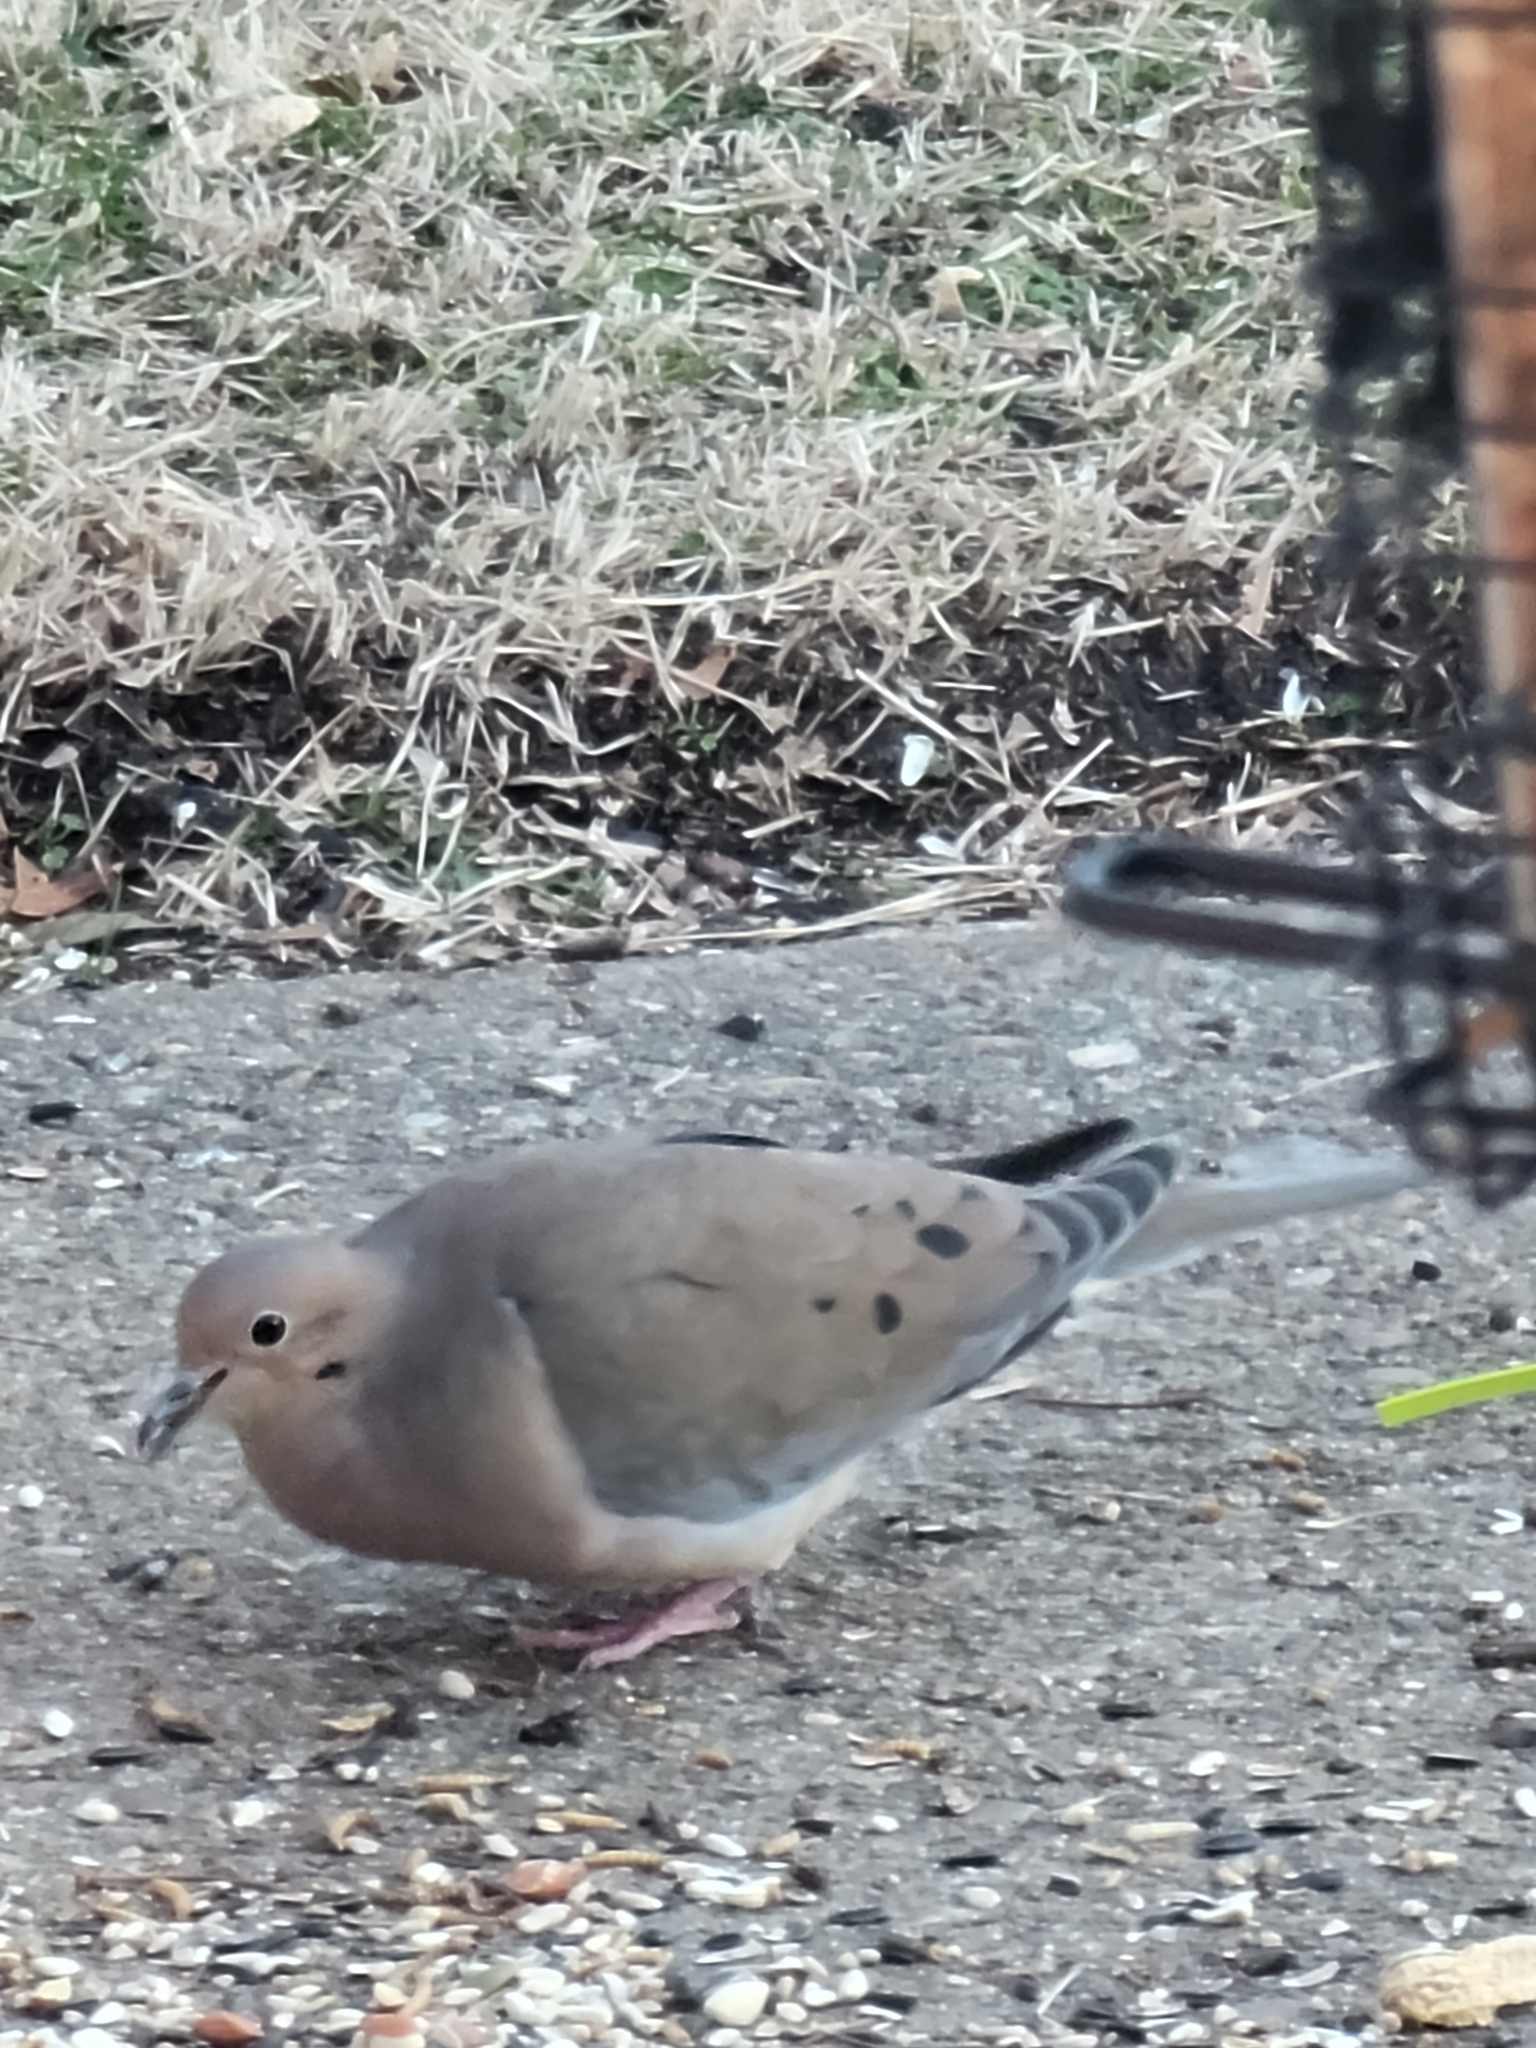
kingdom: Animalia
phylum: Chordata
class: Aves
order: Columbiformes
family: Columbidae
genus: Zenaida
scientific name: Zenaida macroura
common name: Mourning dove
